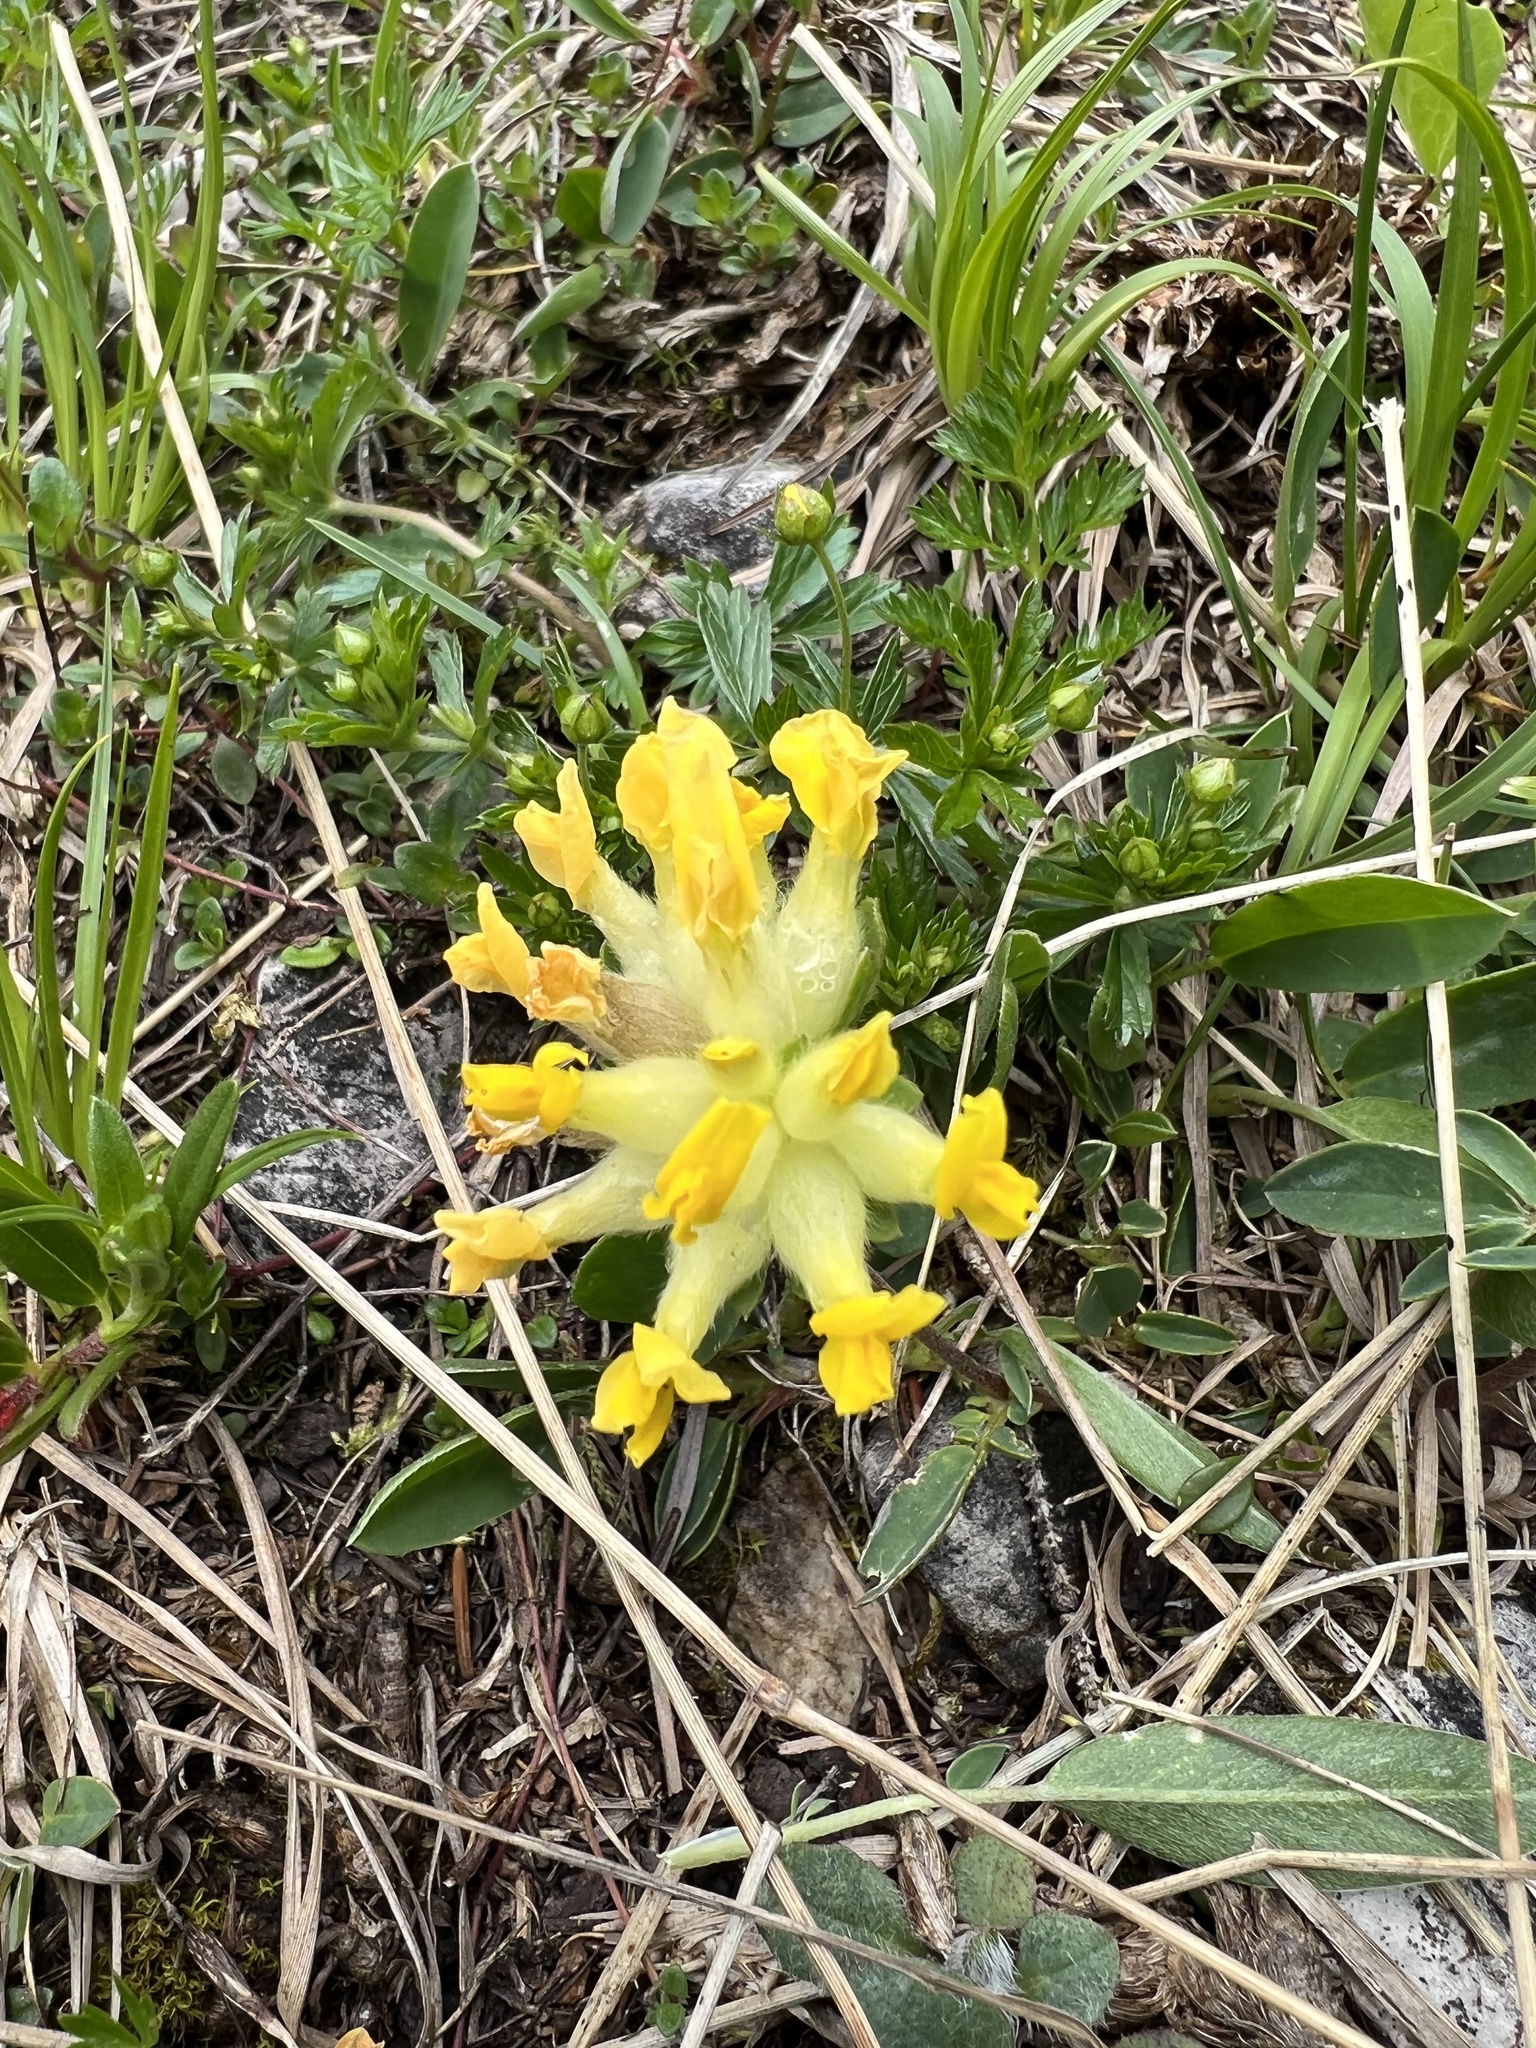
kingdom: Plantae
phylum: Tracheophyta
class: Magnoliopsida
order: Fabales
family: Fabaceae
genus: Anthyllis
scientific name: Anthyllis vulneraria
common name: Kidney vetch
